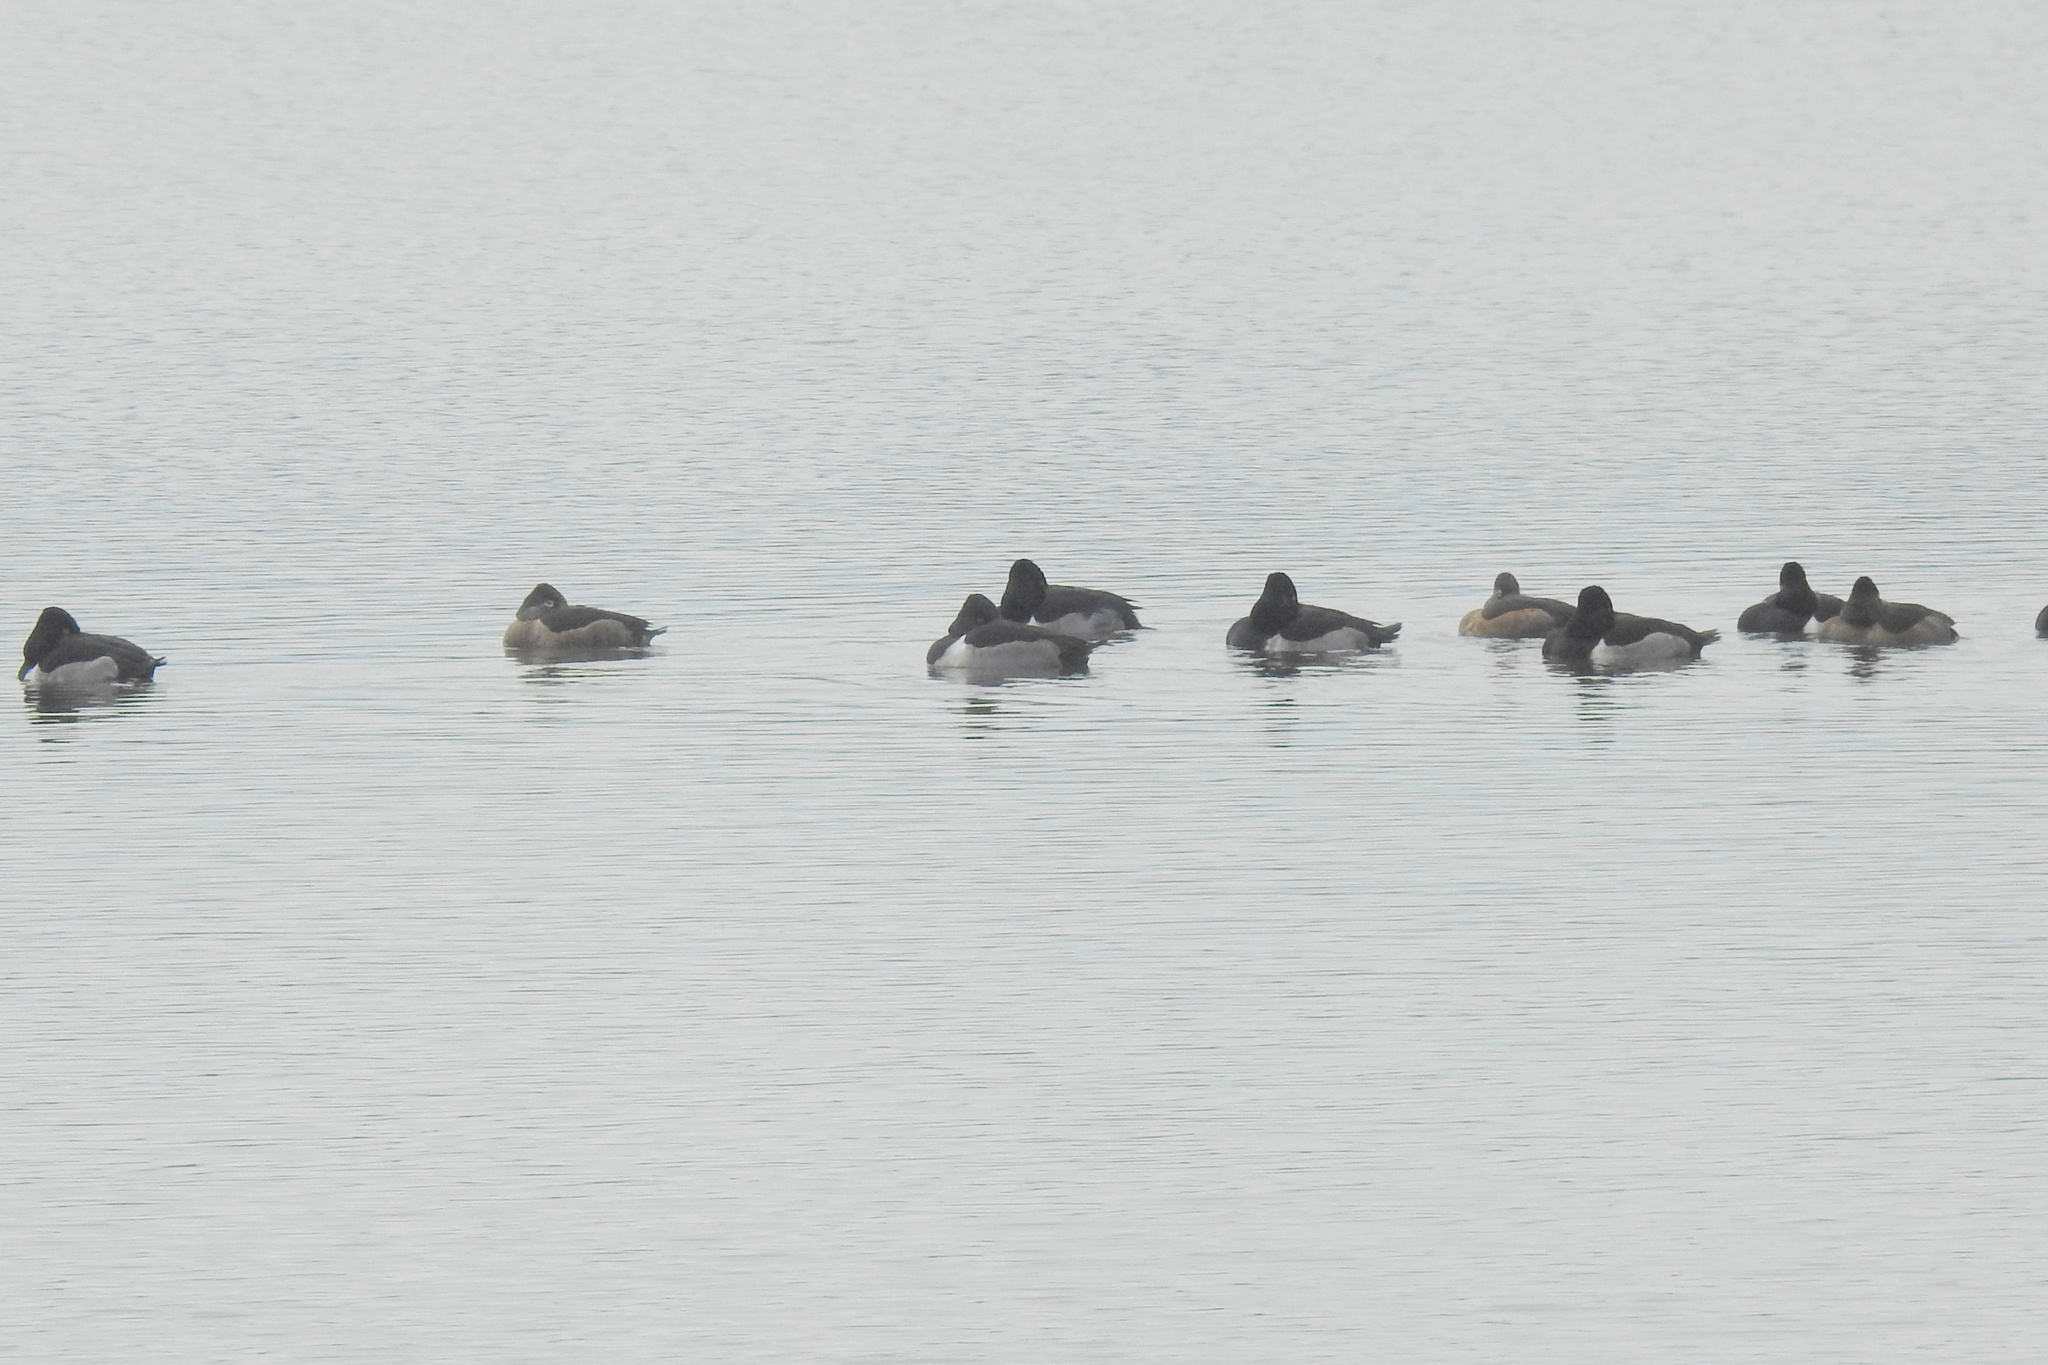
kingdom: Animalia
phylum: Chordata
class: Aves
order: Anseriformes
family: Anatidae
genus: Aythya
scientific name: Aythya collaris
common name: Ring-necked duck
